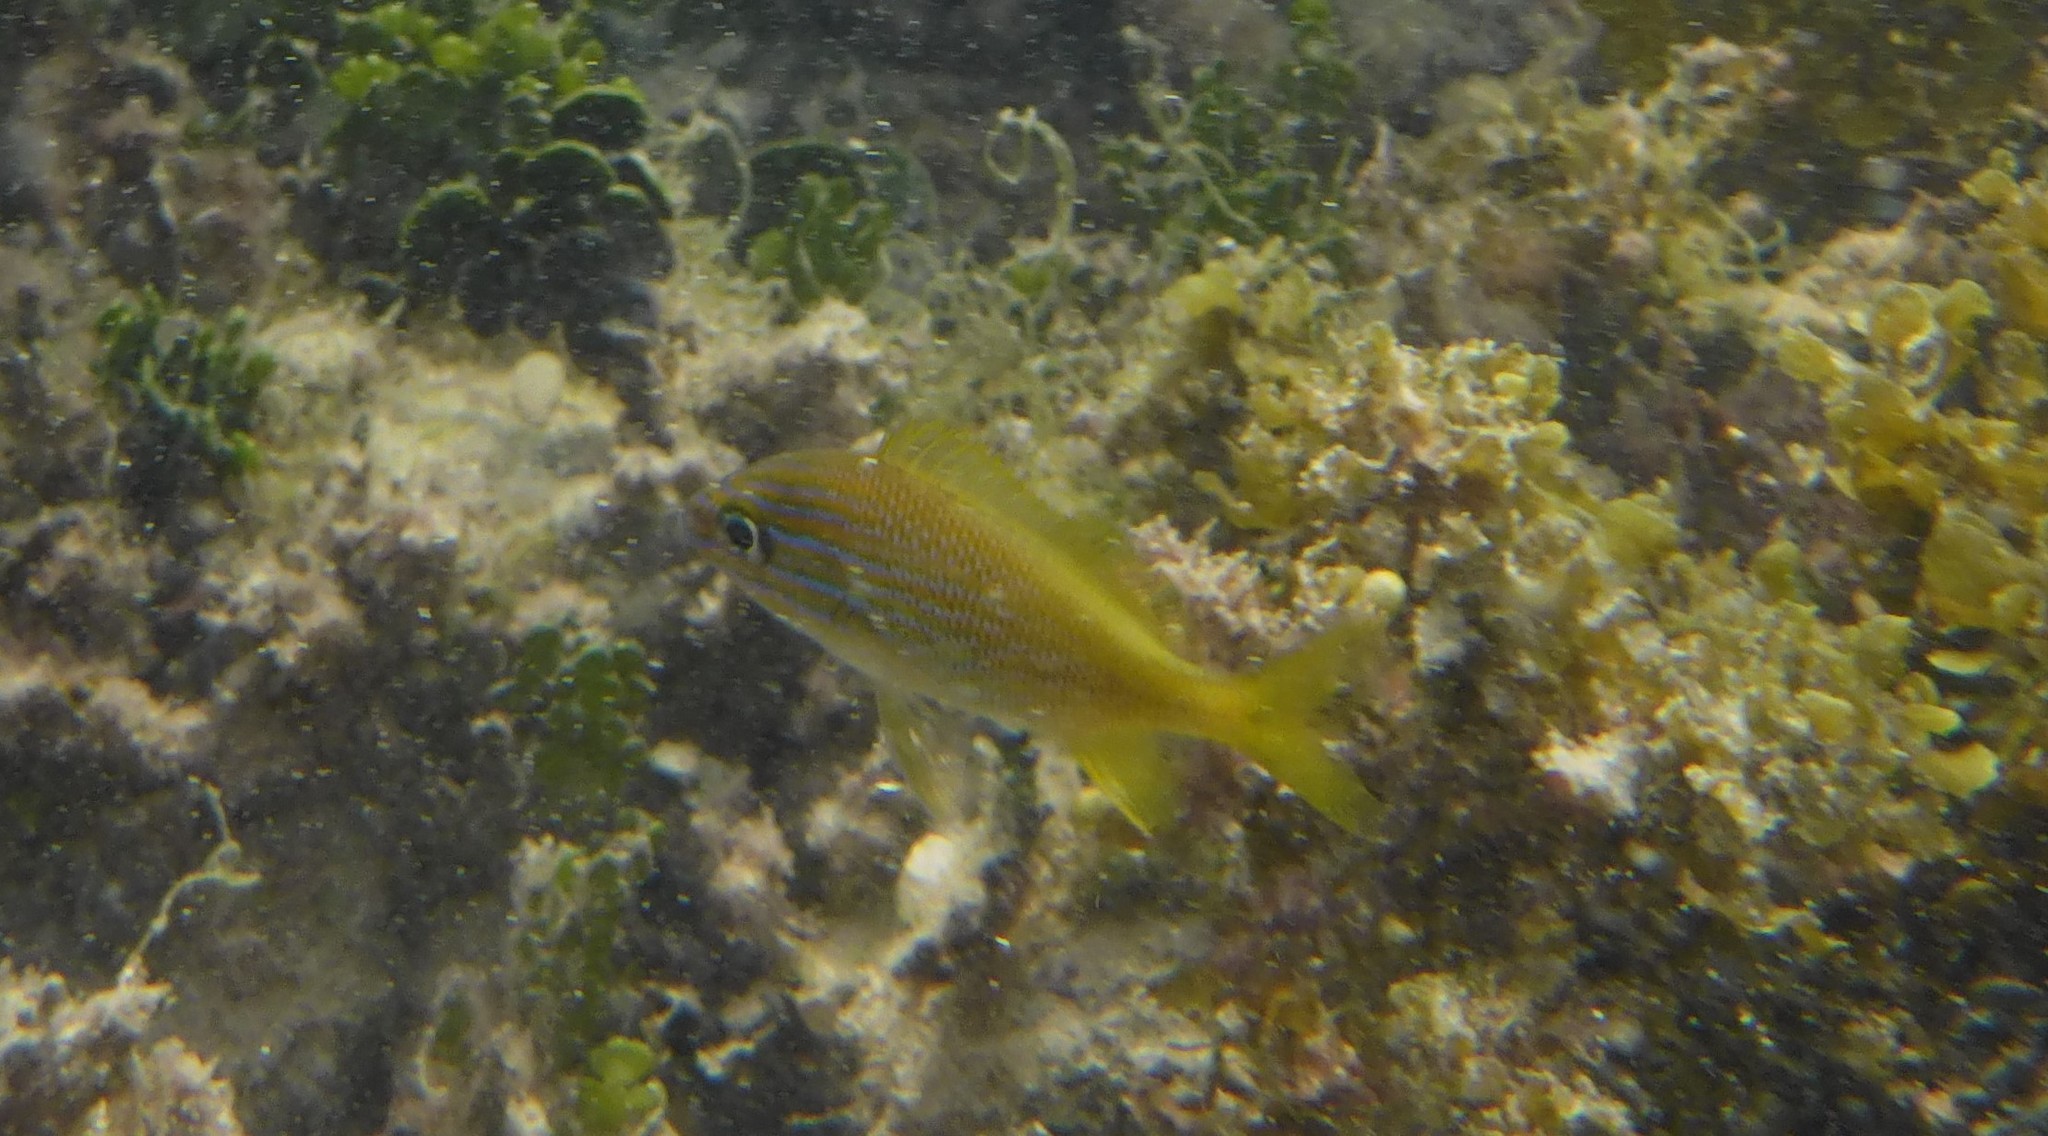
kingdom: Animalia
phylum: Chordata
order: Perciformes
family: Haemulidae
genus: Haemulon
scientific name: Haemulon plumierii
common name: White grunt
